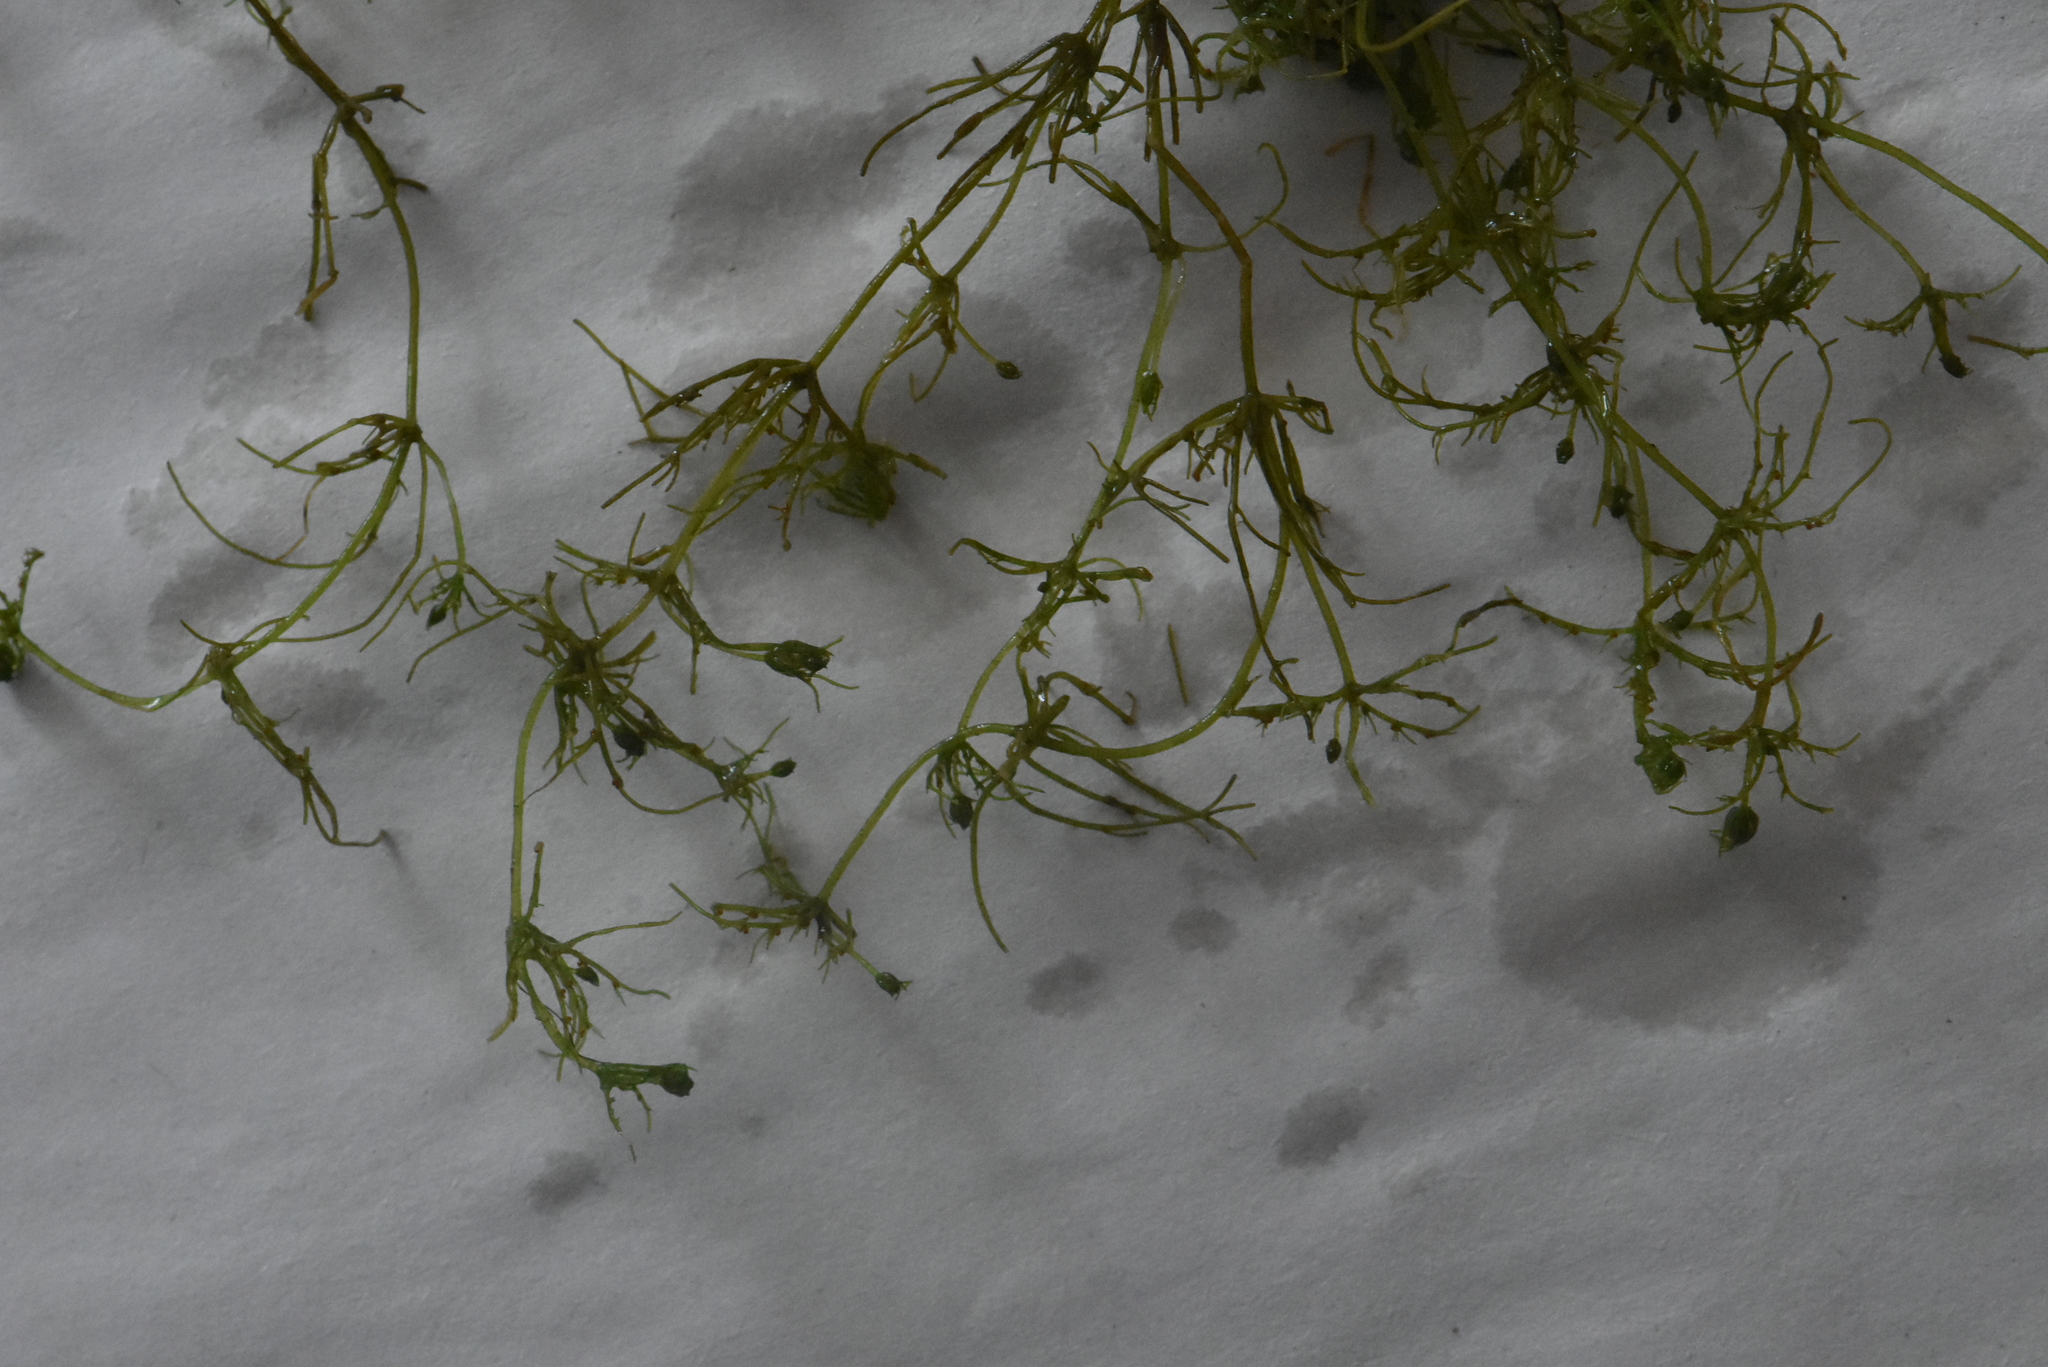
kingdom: Plantae
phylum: Charophyta
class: Charophyceae
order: Charales
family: Characeae
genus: Chara
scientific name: Chara vulgaris
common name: Common stonewort
